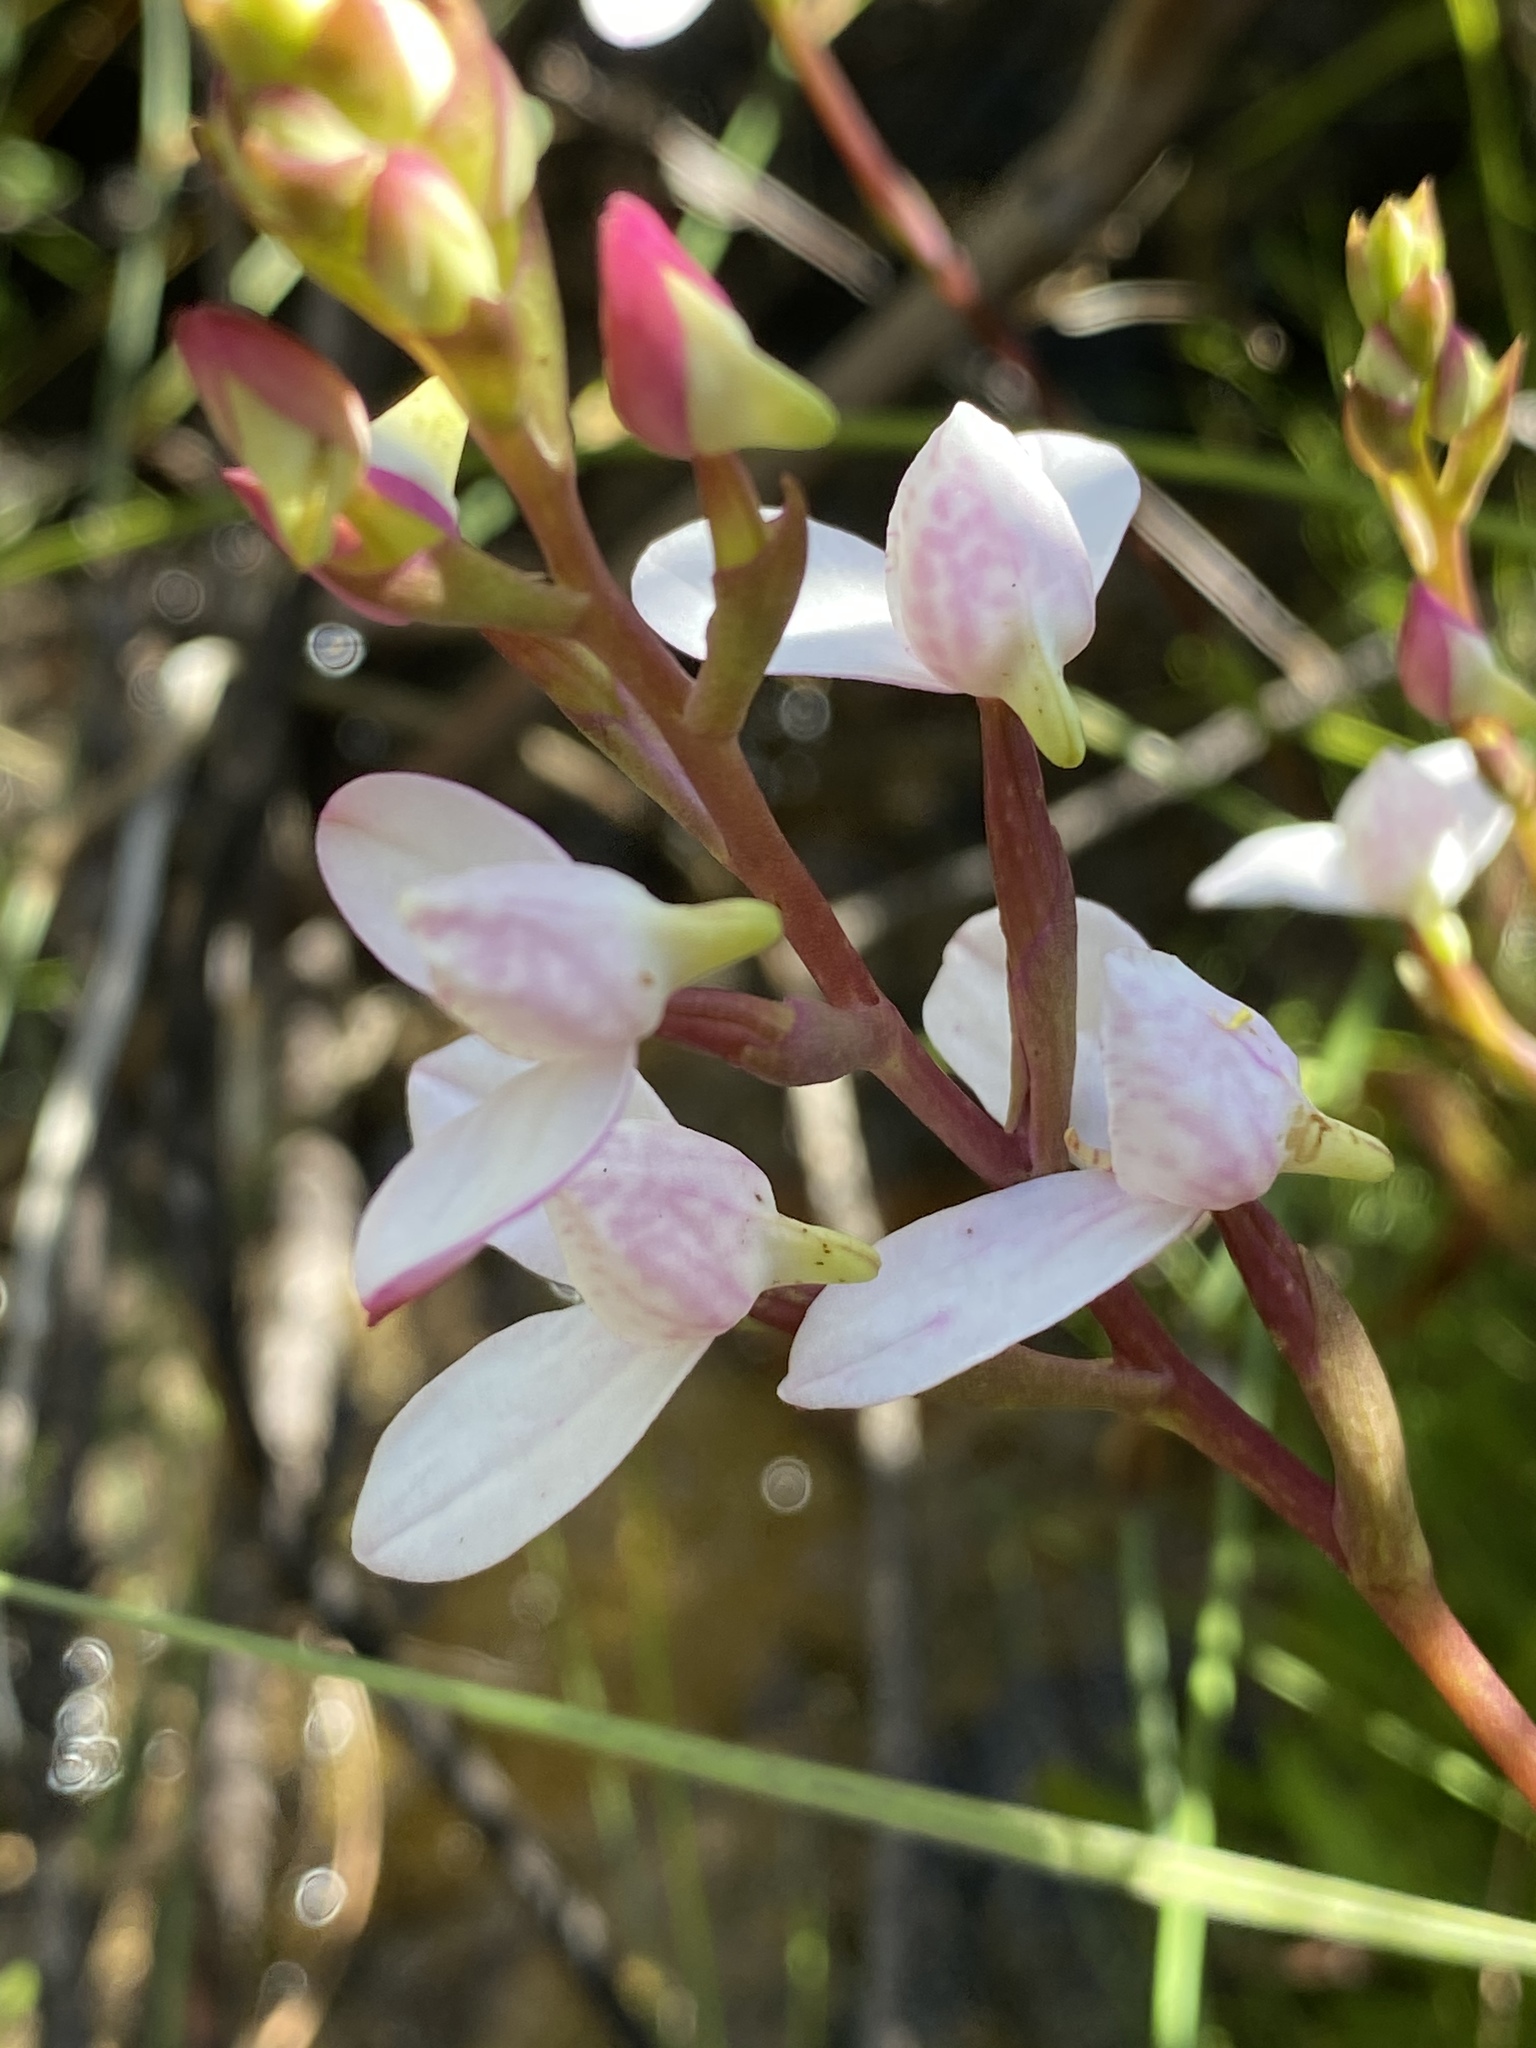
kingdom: Plantae
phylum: Tracheophyta
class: Liliopsida
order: Asparagales
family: Orchidaceae
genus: Disa
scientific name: Disa tripetaloides
